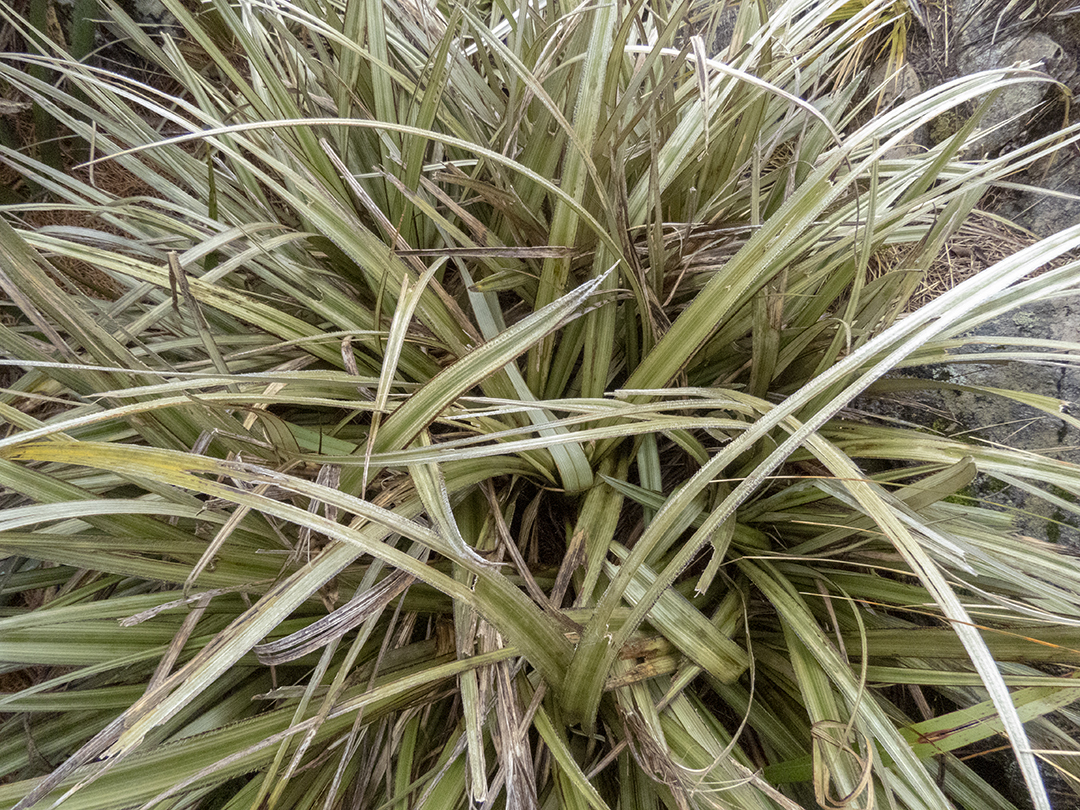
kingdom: Plantae
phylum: Tracheophyta
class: Liliopsida
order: Asparagales
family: Asteliaceae
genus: Astelia
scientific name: Astelia nervosa
